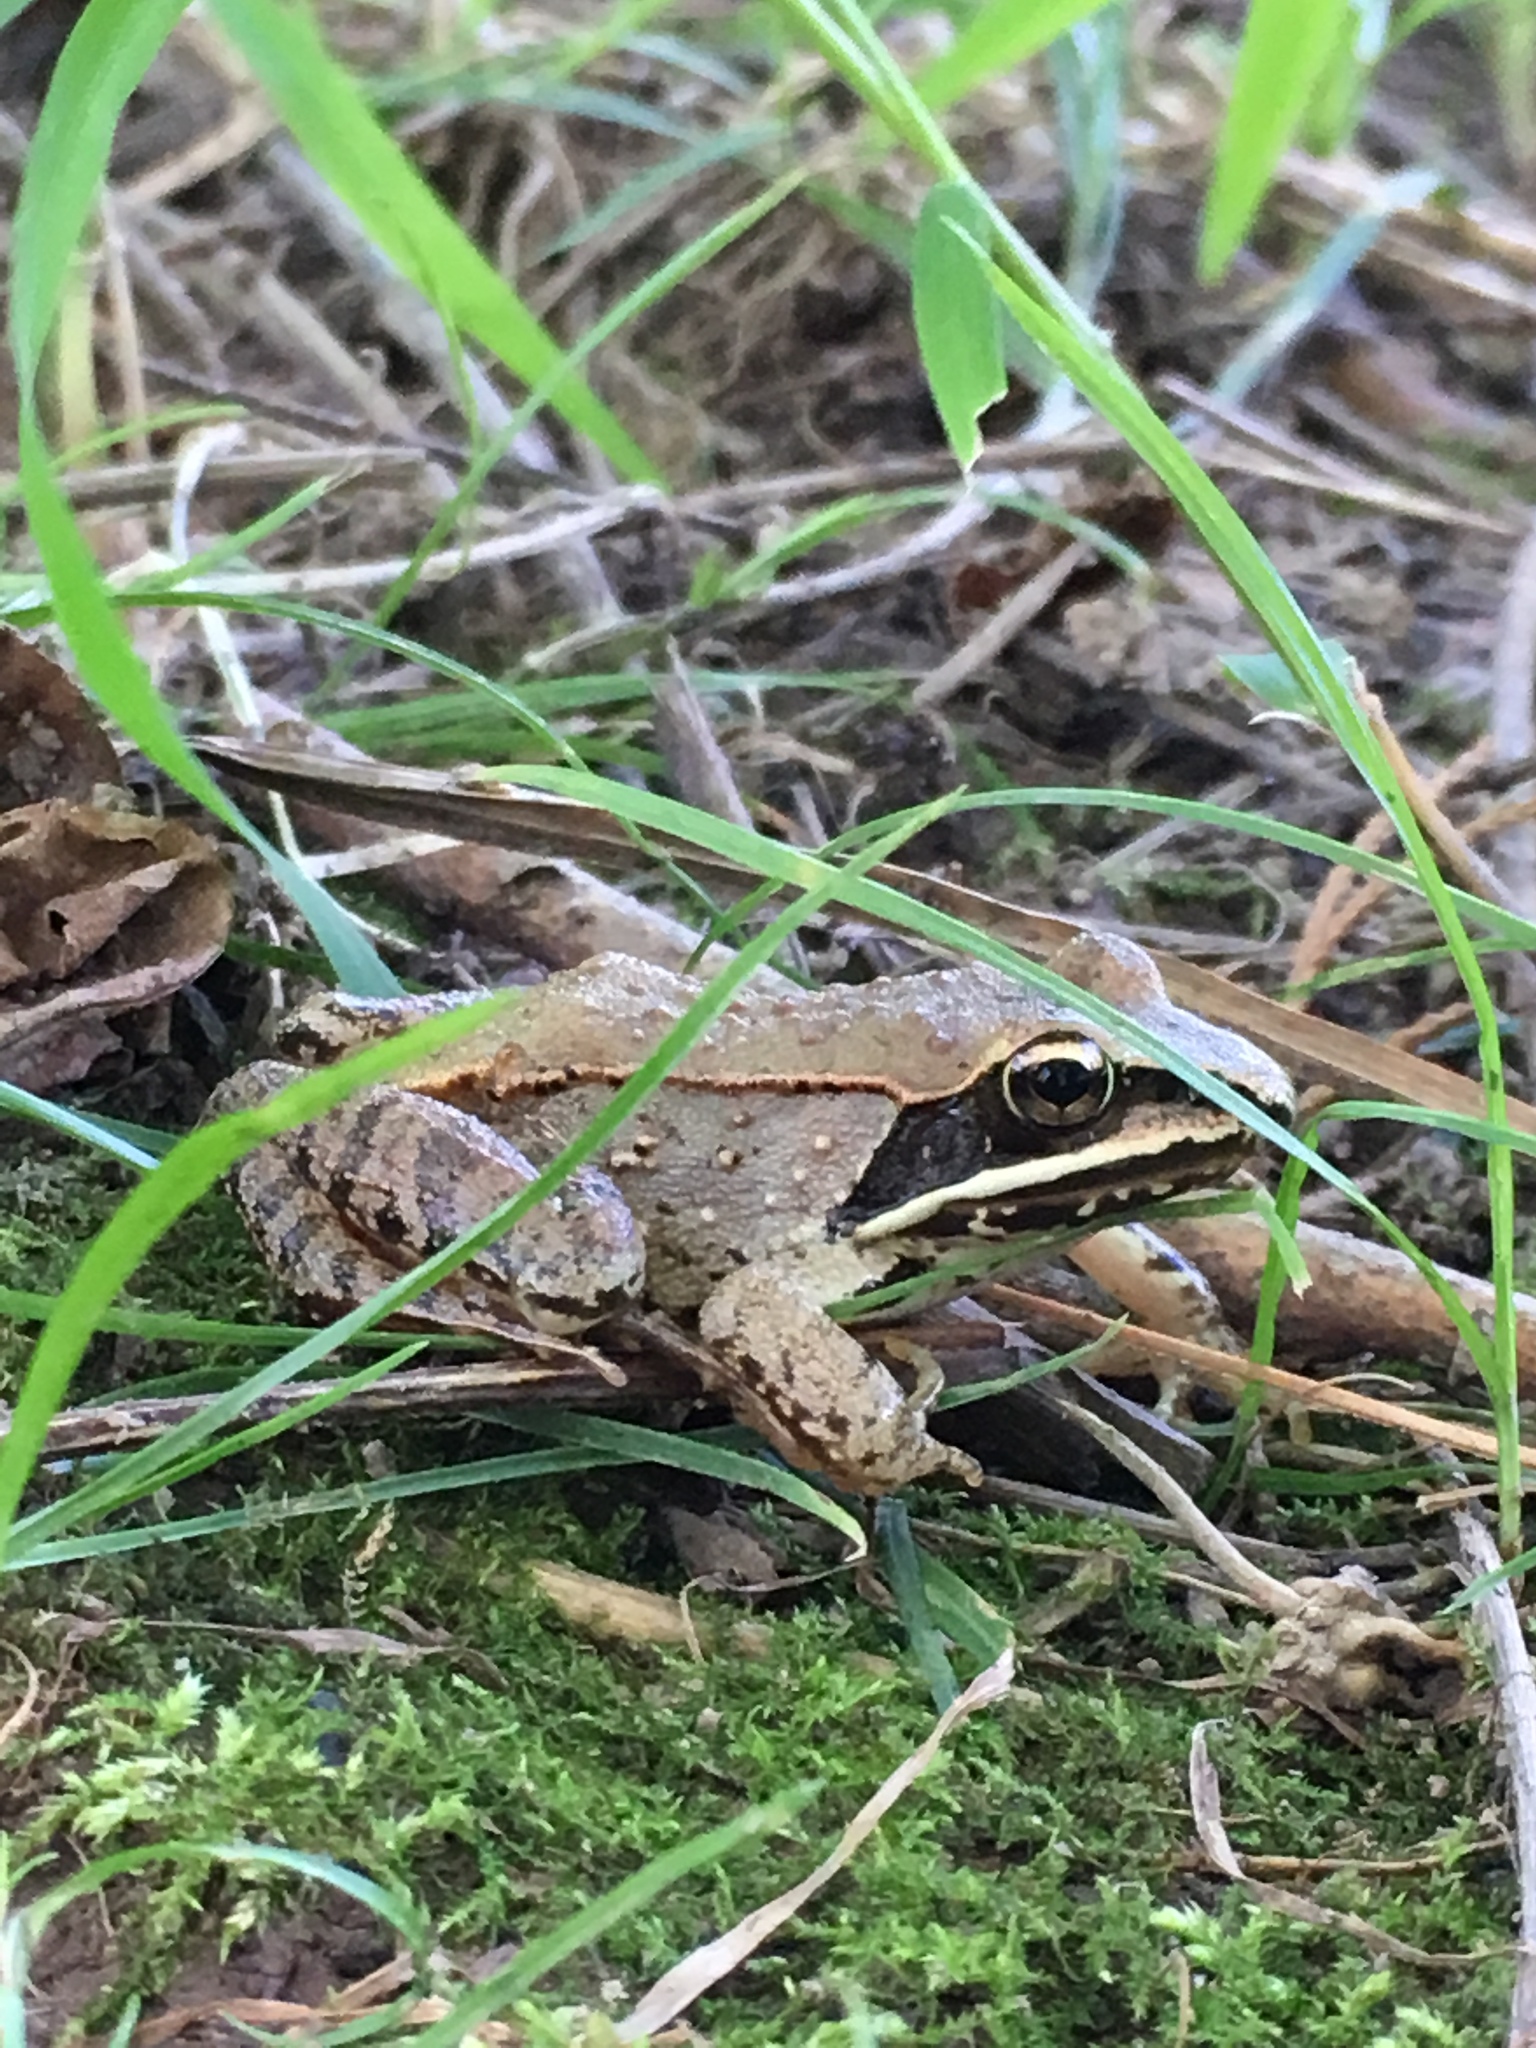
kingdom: Animalia
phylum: Chordata
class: Amphibia
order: Anura
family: Ranidae
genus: Lithobates
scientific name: Lithobates sylvaticus
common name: Wood frog
